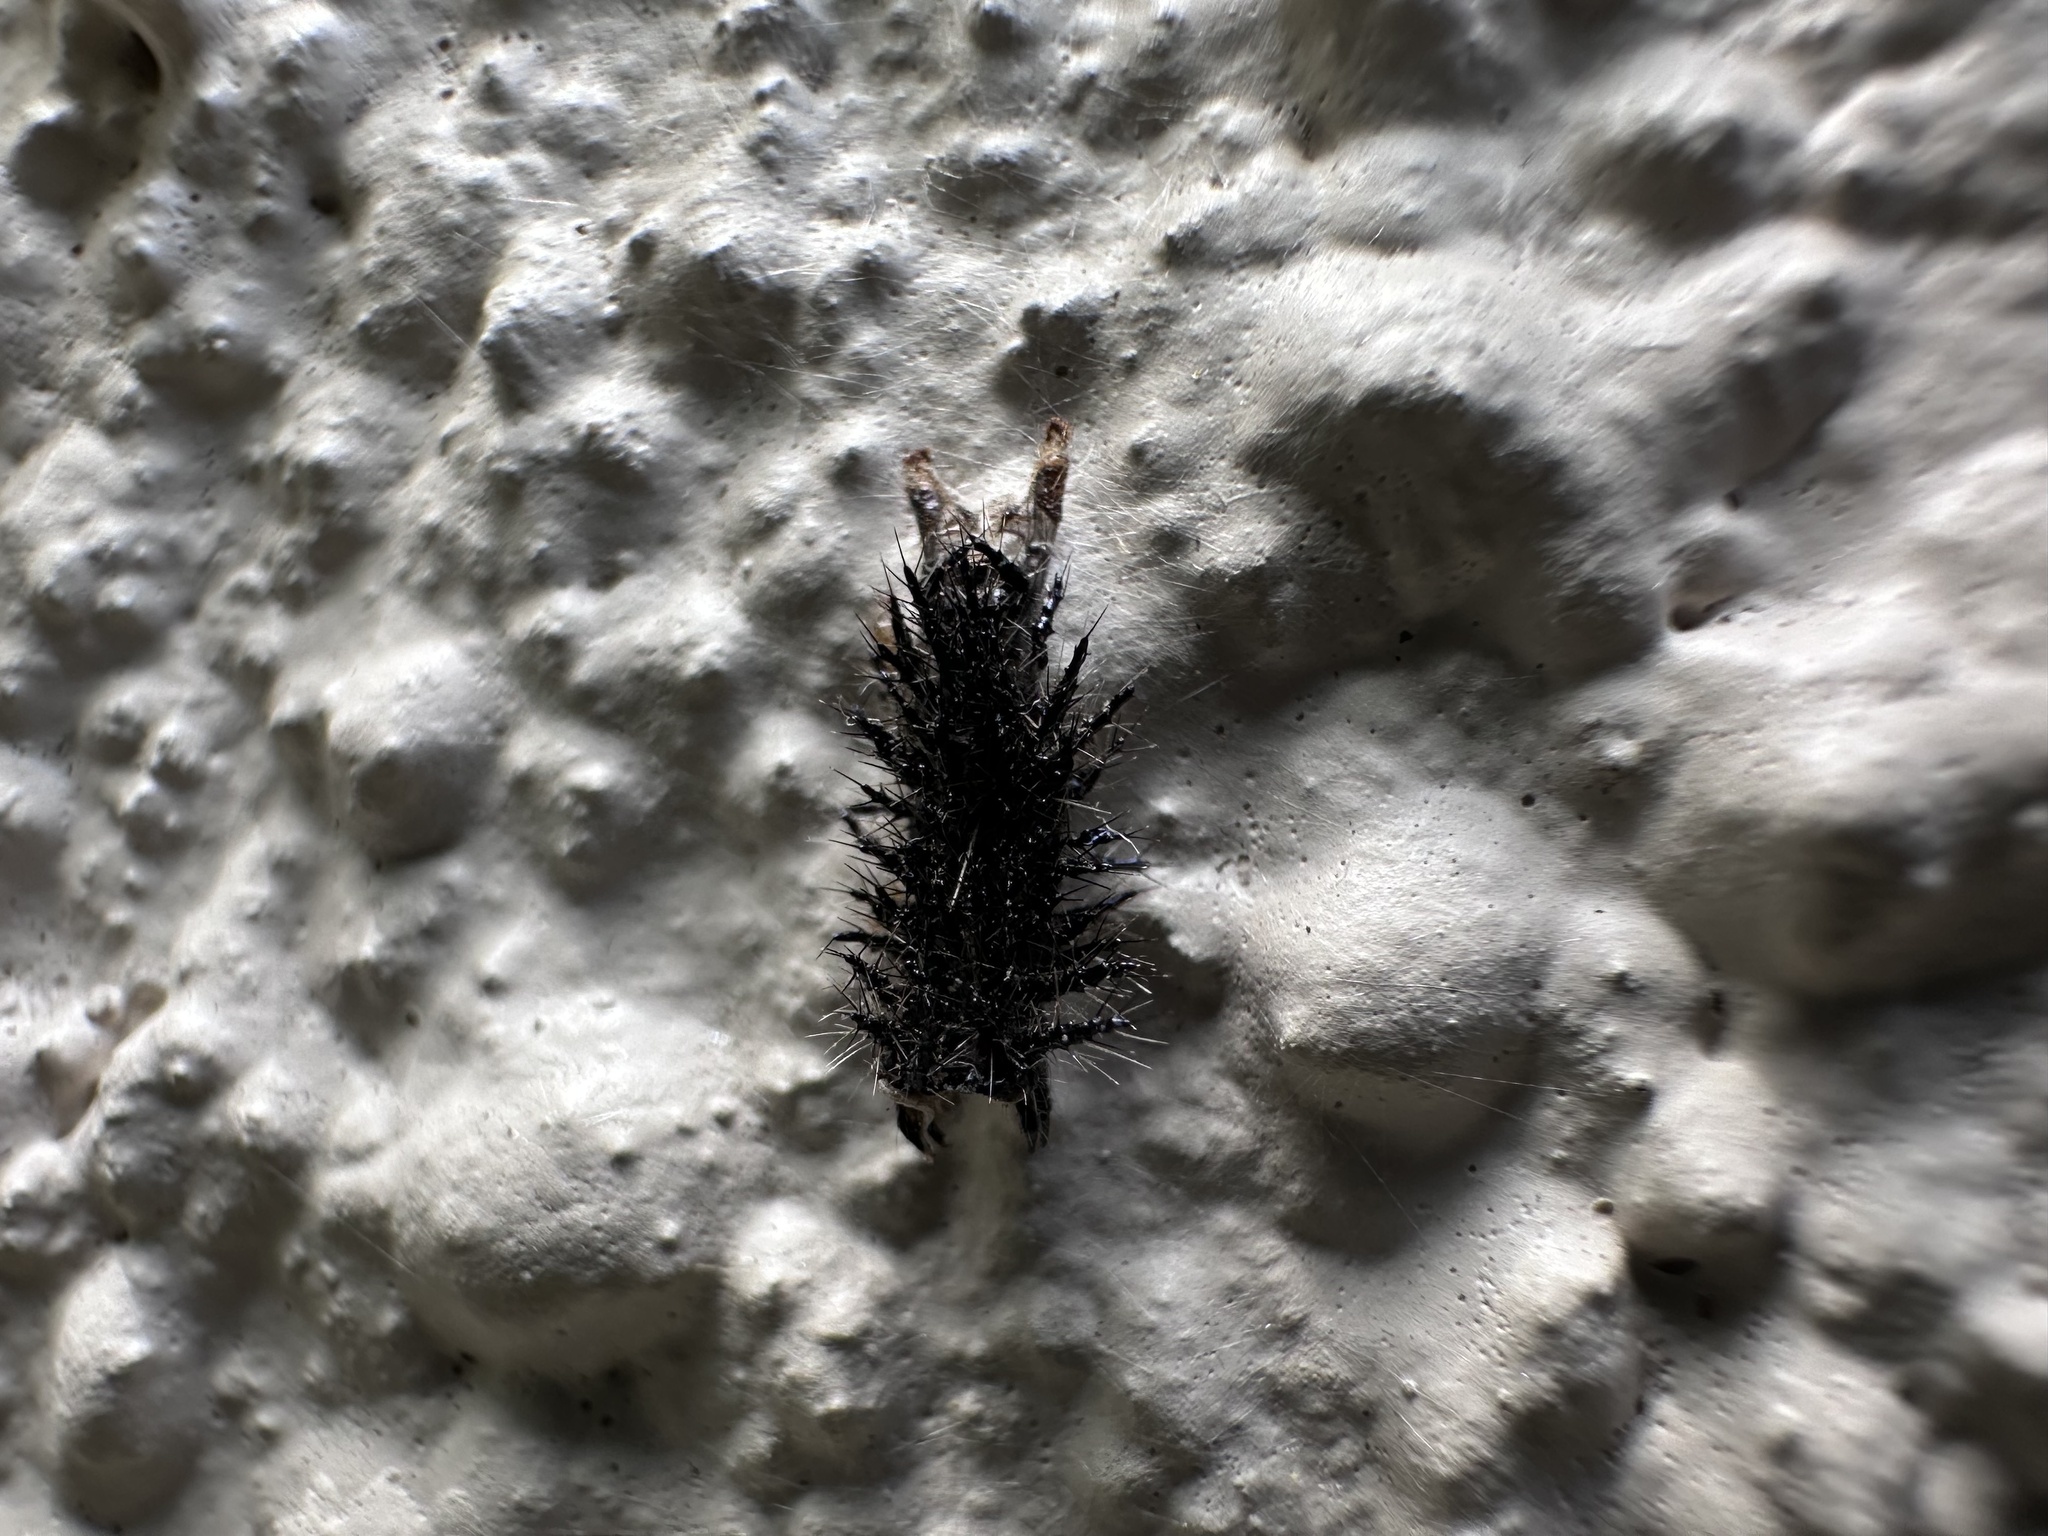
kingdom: Animalia
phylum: Arthropoda
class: Insecta
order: Lepidoptera
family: Nymphalidae
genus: Acraea
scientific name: Acraea horta
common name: Garden acraea
